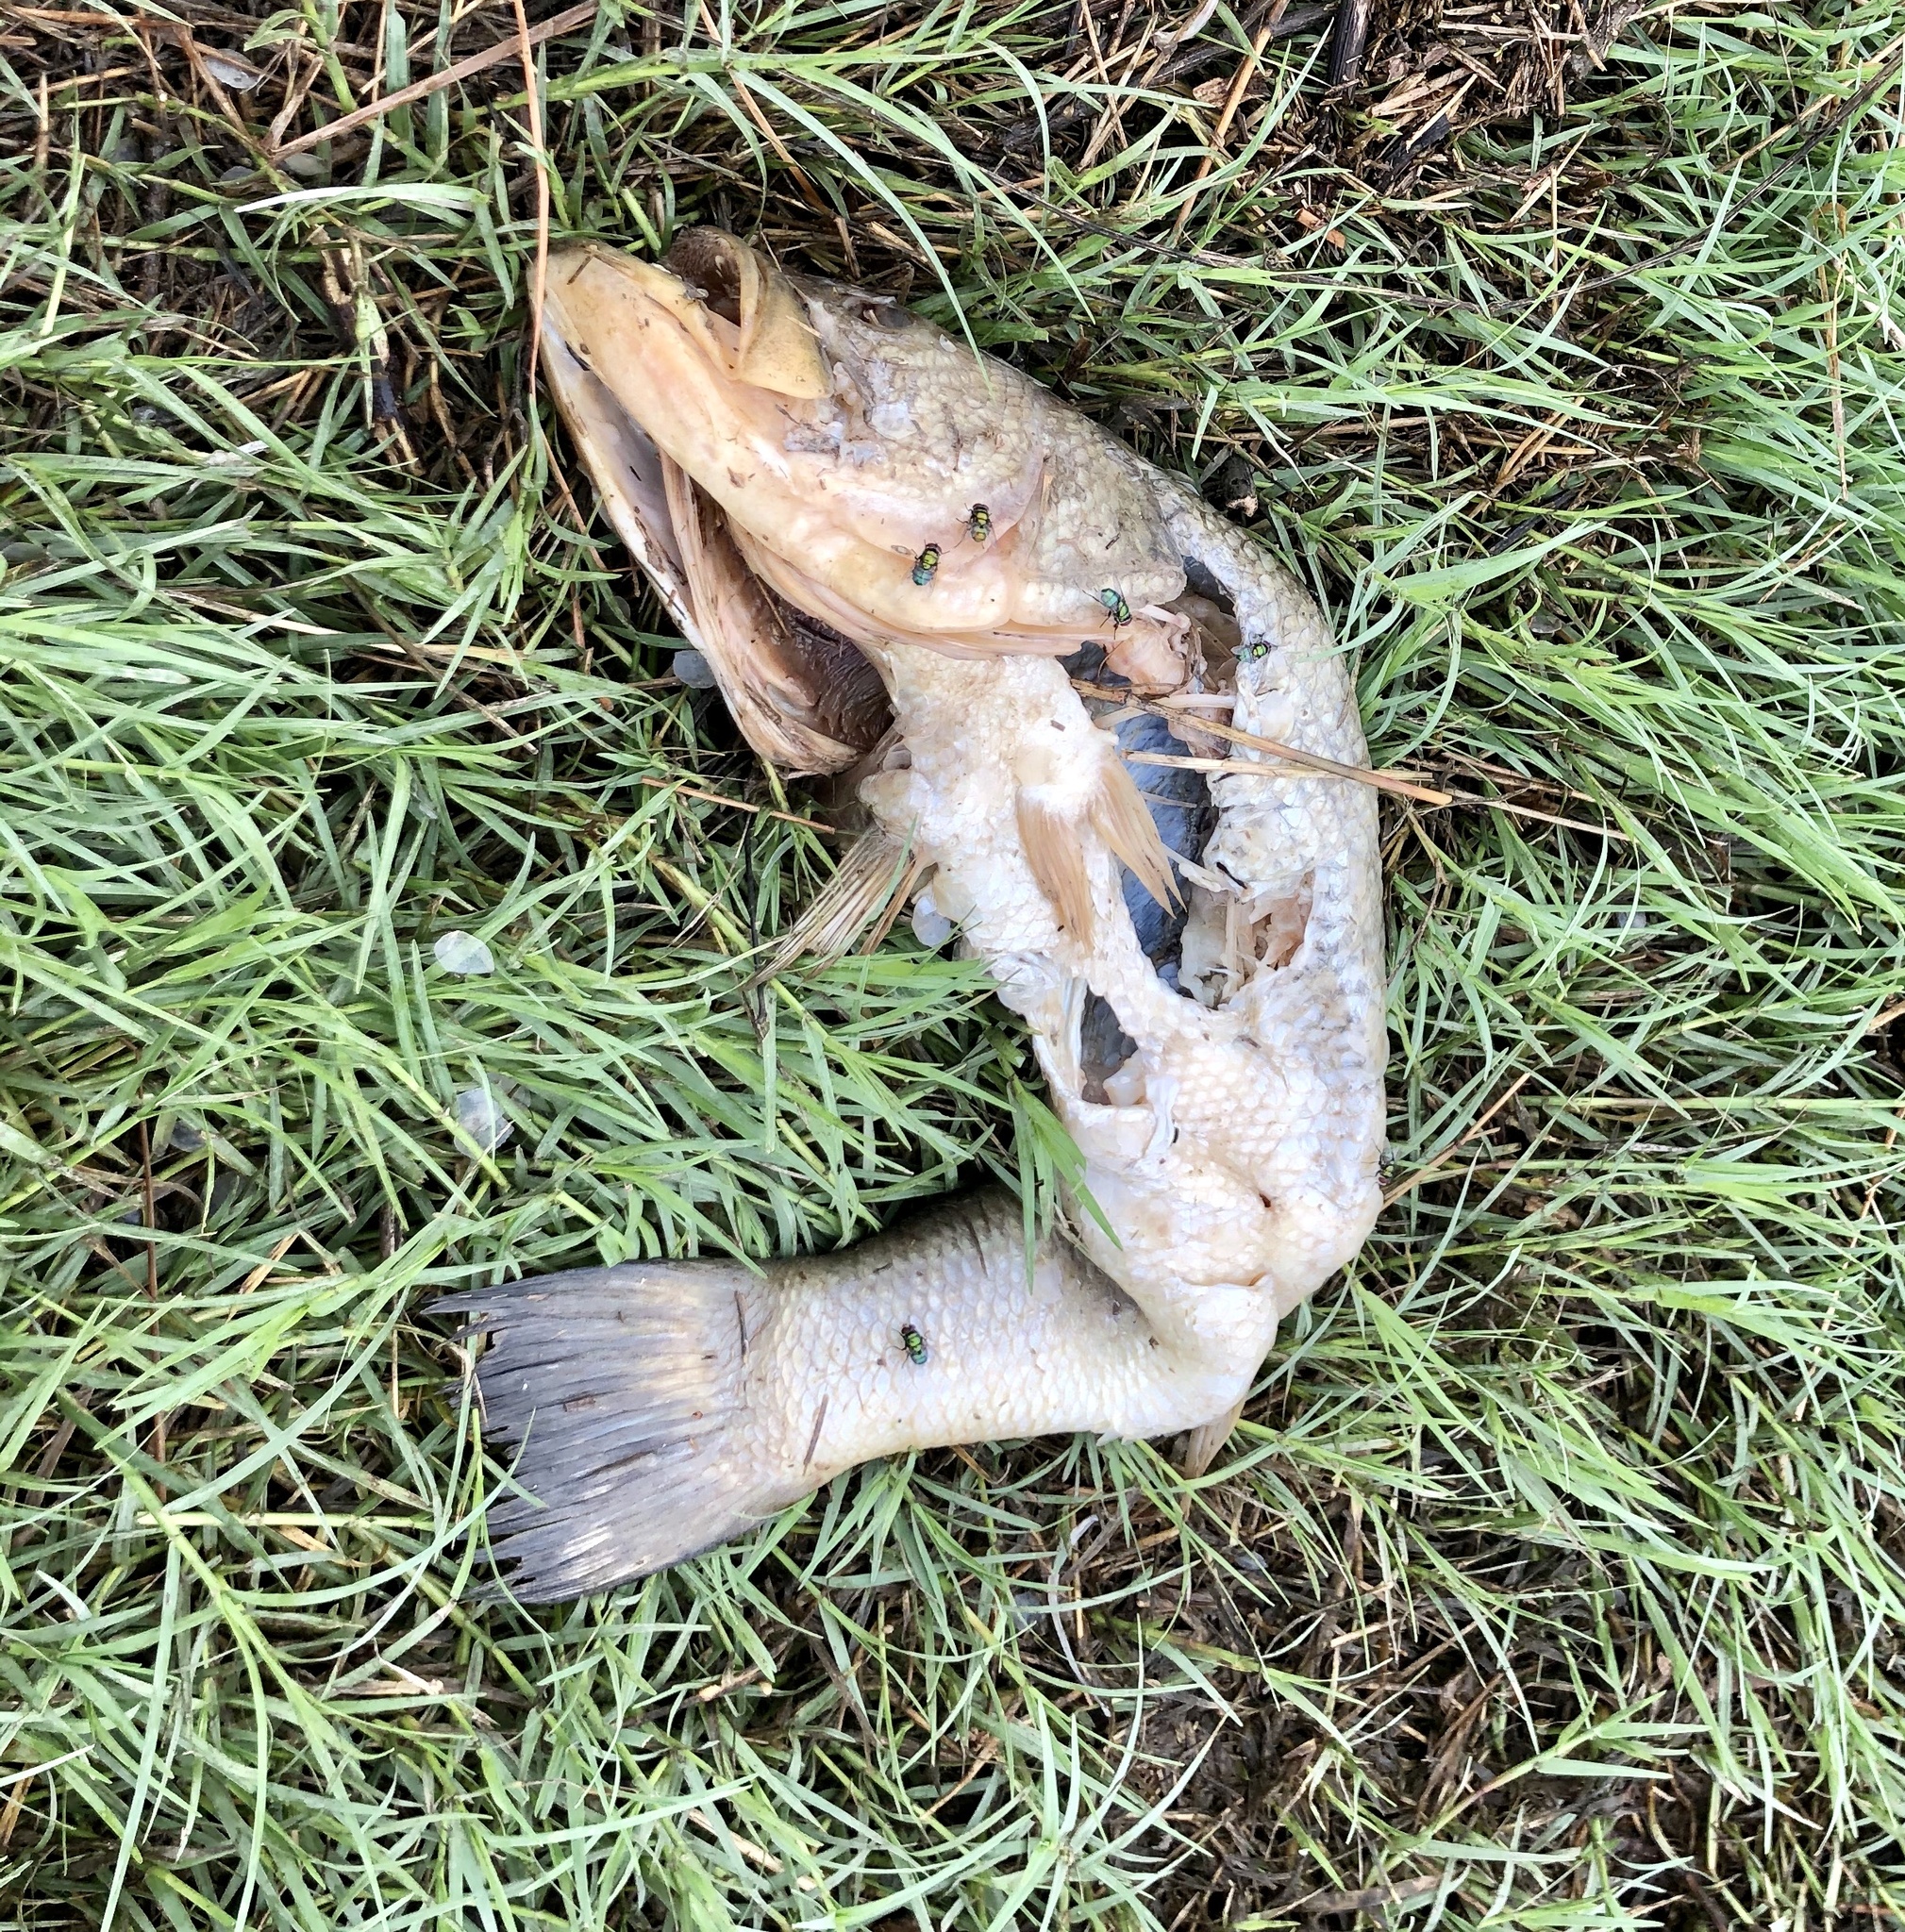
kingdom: Animalia
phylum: Chordata
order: Perciformes
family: Centrarchidae
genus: Micropterus
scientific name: Micropterus
